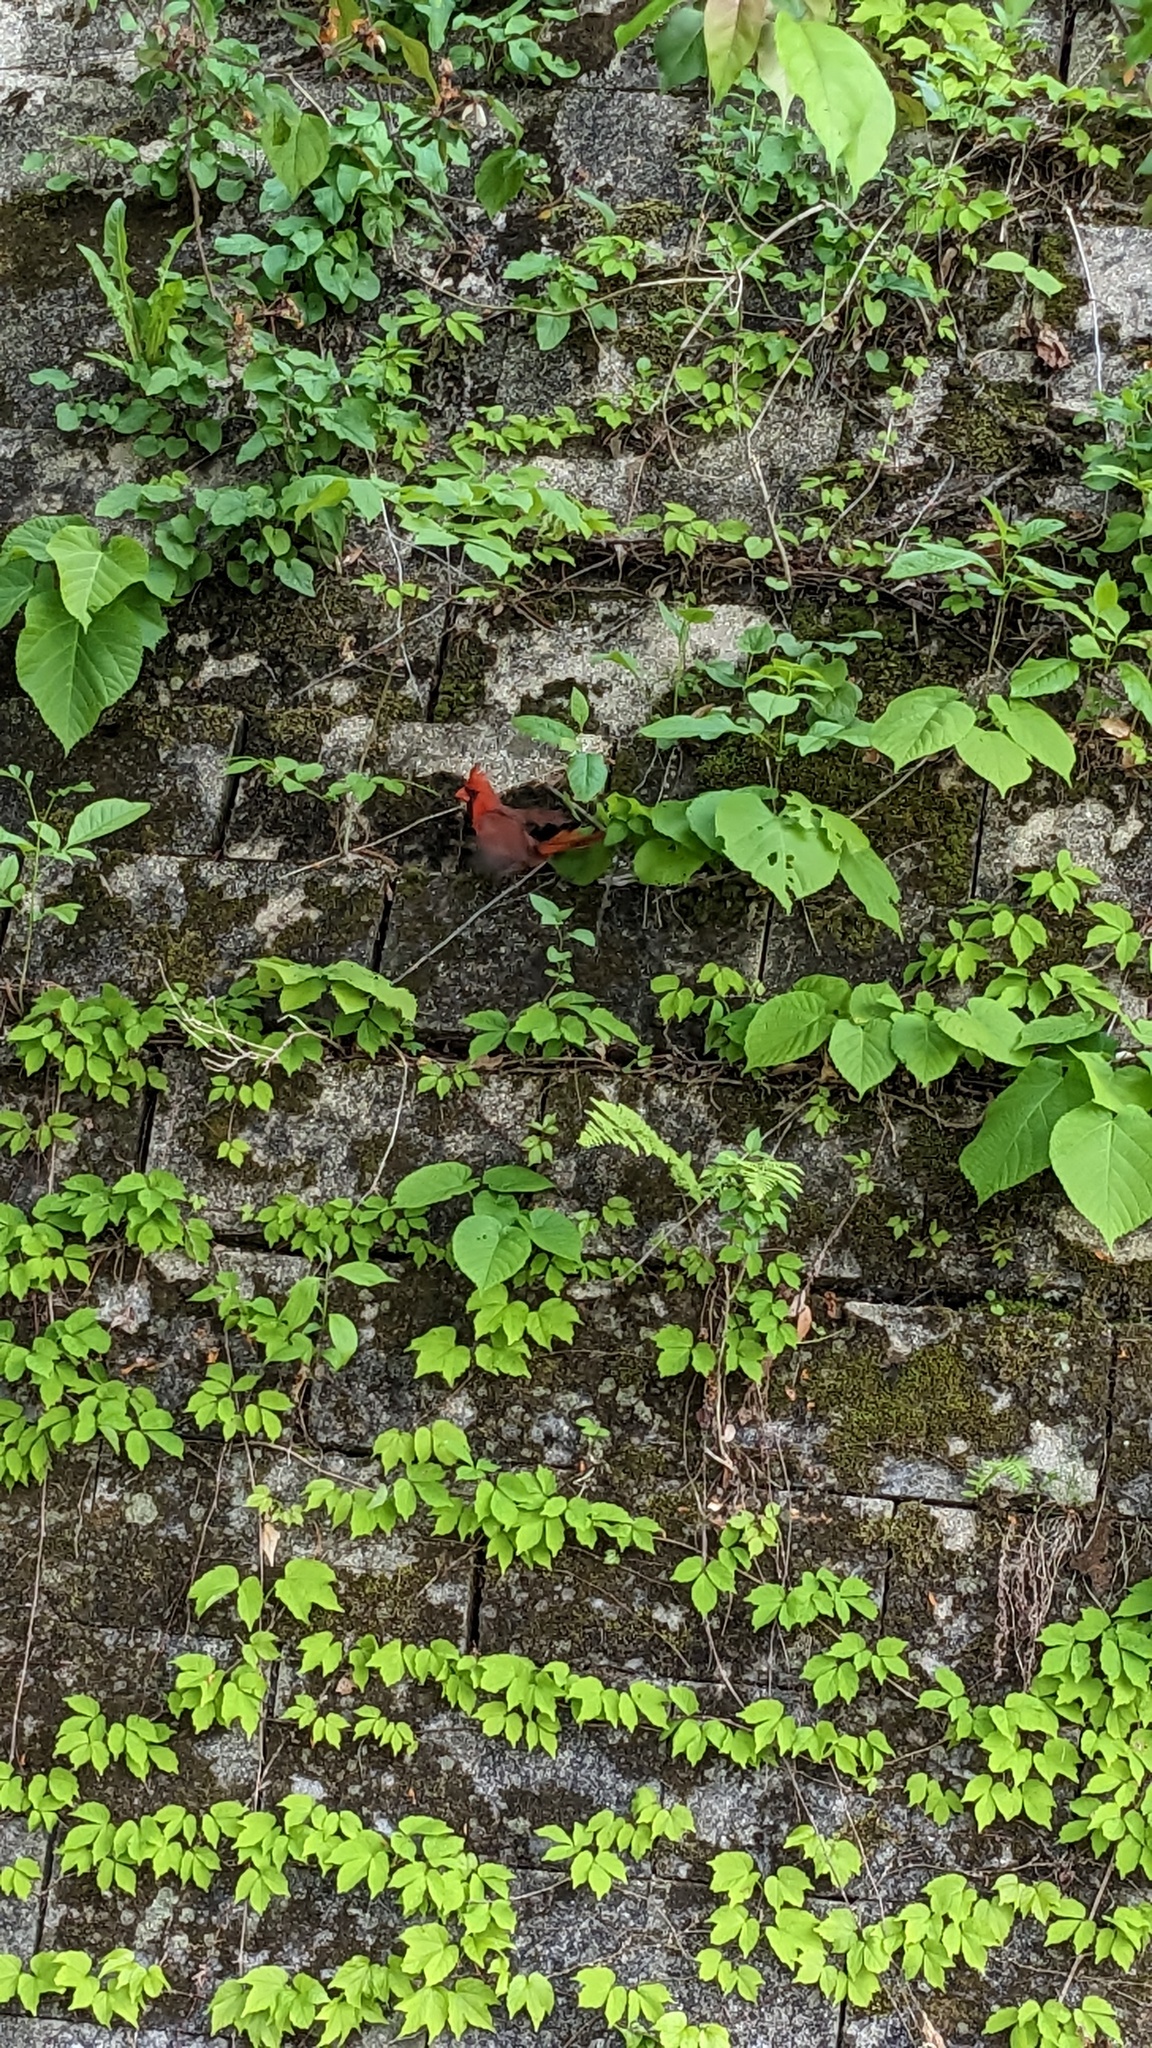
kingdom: Animalia
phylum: Chordata
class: Aves
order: Passeriformes
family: Cardinalidae
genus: Cardinalis
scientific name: Cardinalis cardinalis
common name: Northern cardinal
